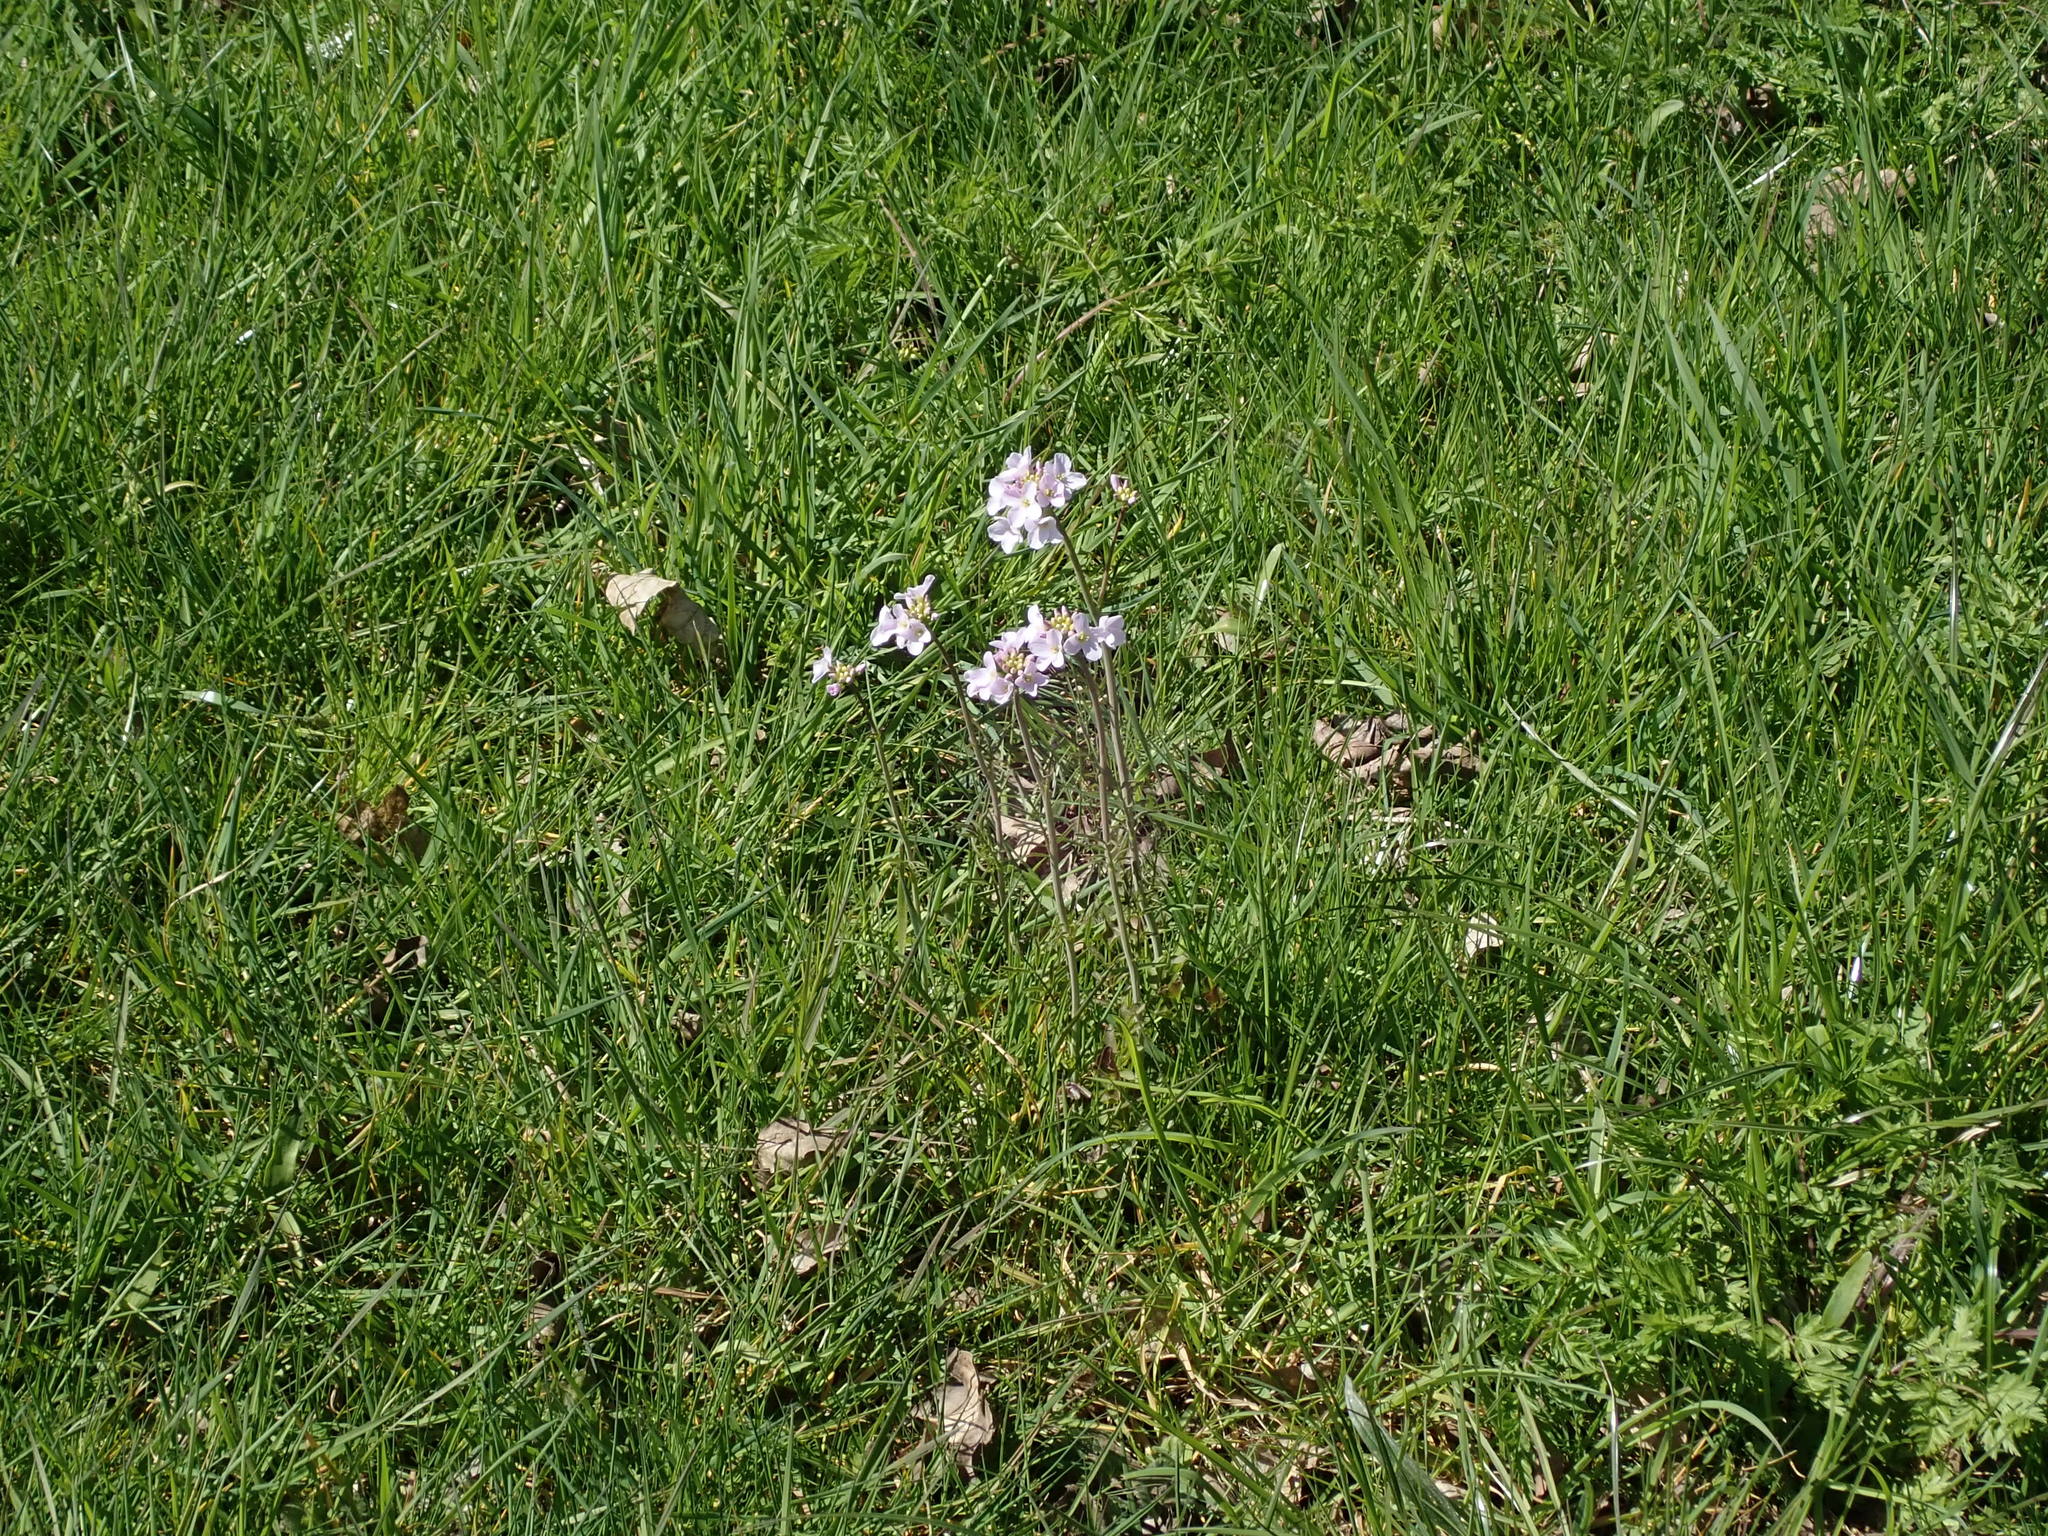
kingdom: Plantae
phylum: Tracheophyta
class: Magnoliopsida
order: Brassicales
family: Brassicaceae
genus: Cardamine
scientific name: Cardamine pratensis
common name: Cuckoo flower
